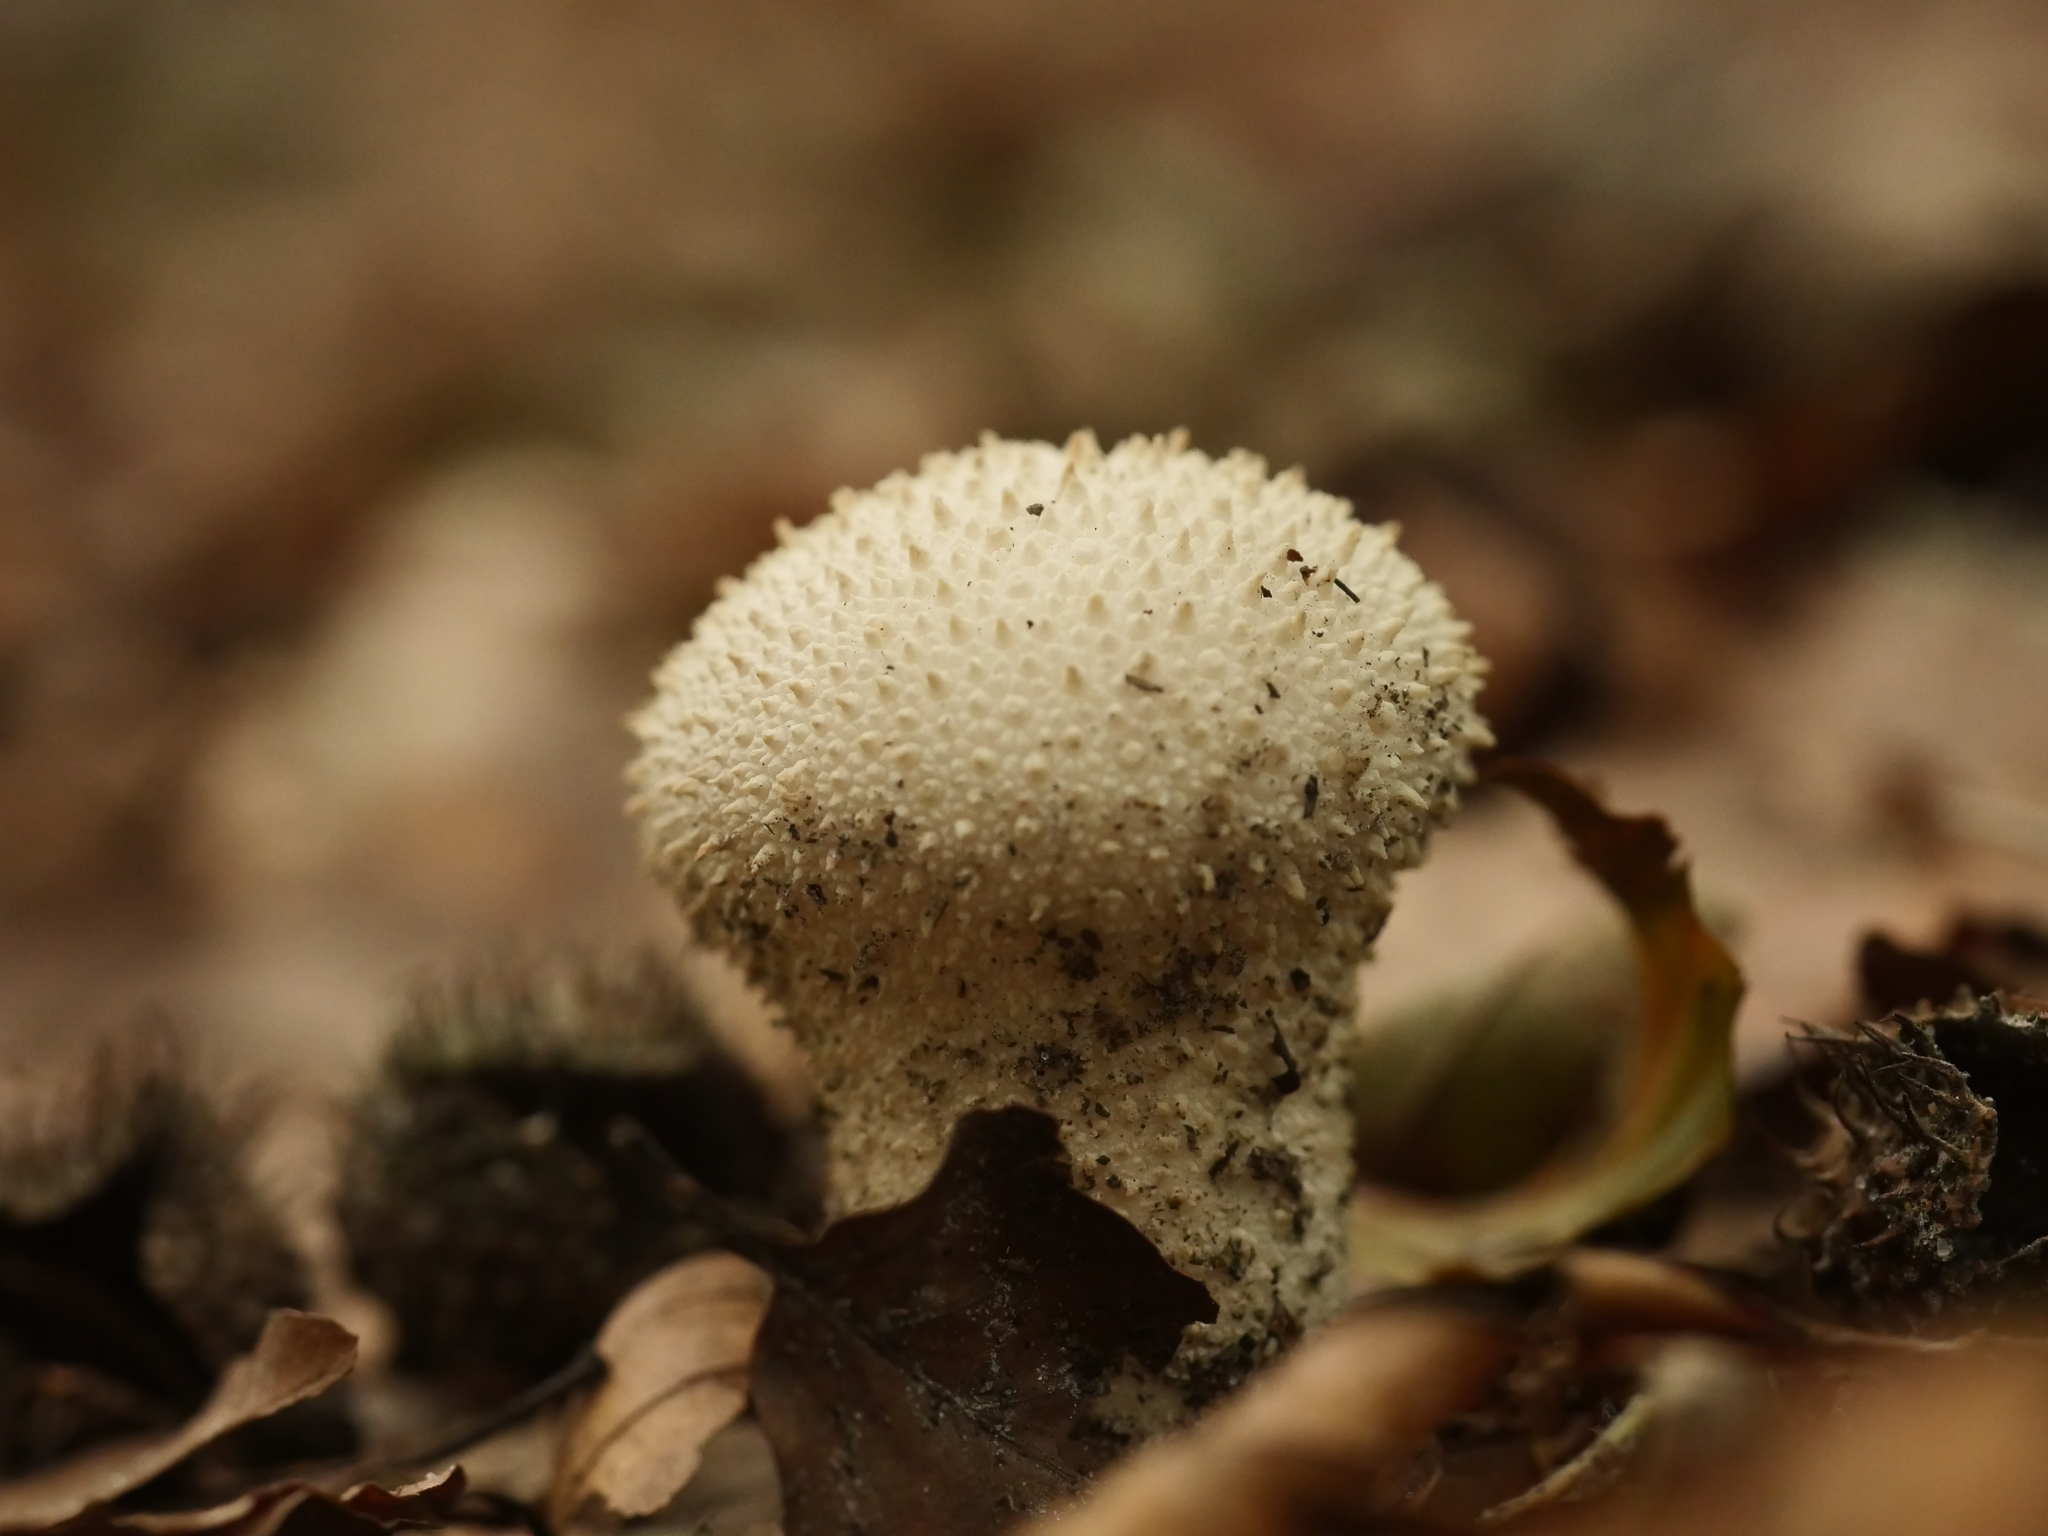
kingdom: Fungi
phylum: Basidiomycota
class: Agaricomycetes
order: Agaricales
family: Lycoperdaceae
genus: Lycoperdon
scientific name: Lycoperdon perlatum
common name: Common puffball
